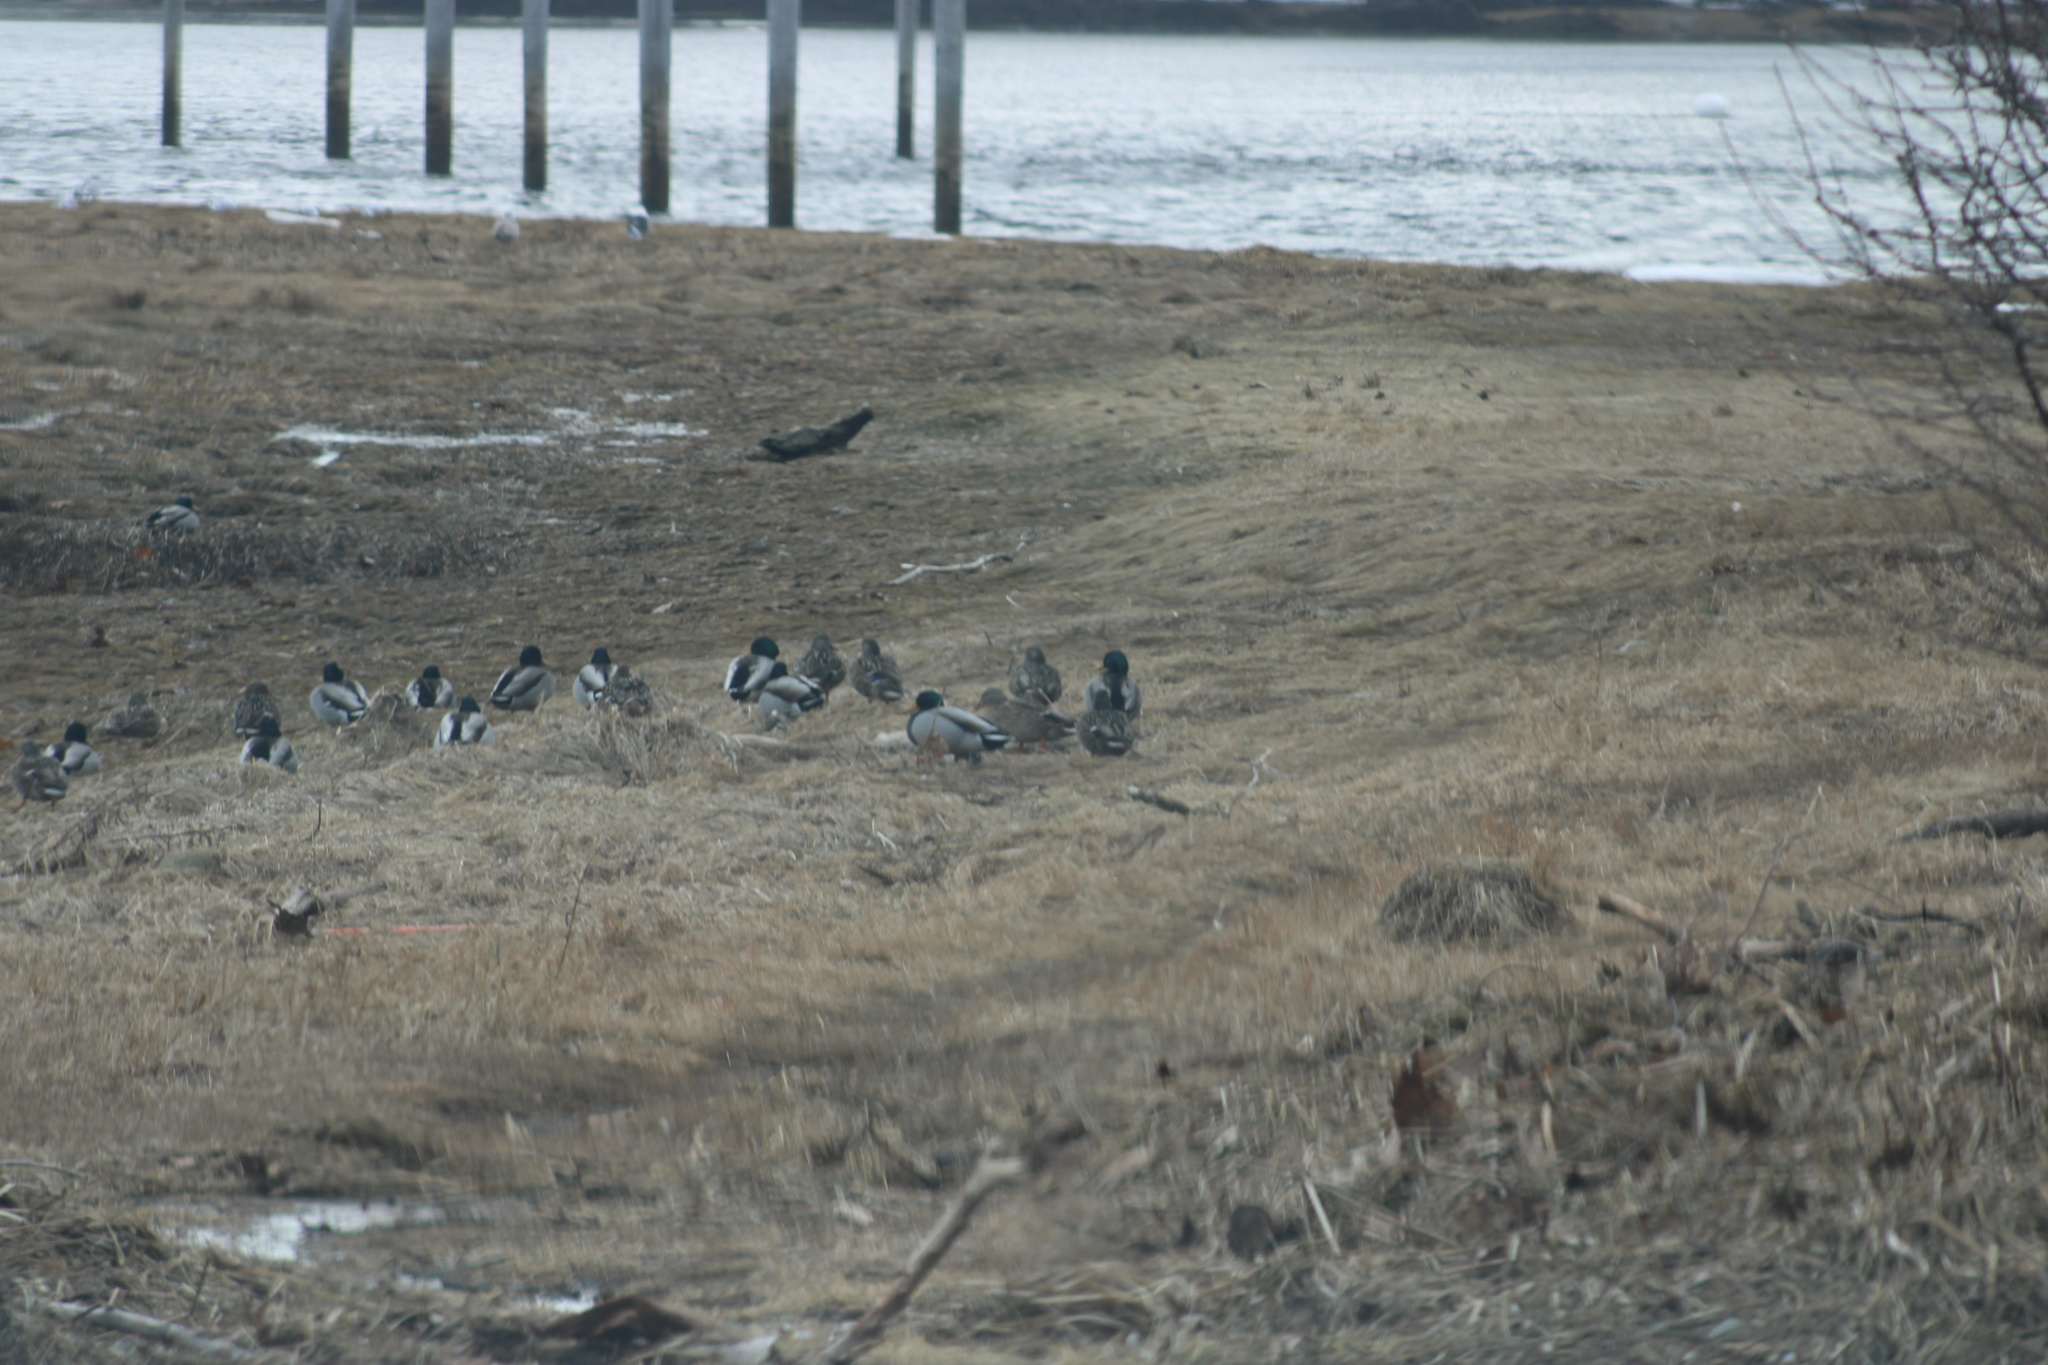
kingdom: Animalia
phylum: Chordata
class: Aves
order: Anseriformes
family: Anatidae
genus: Anas
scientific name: Anas platyrhynchos
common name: Mallard
